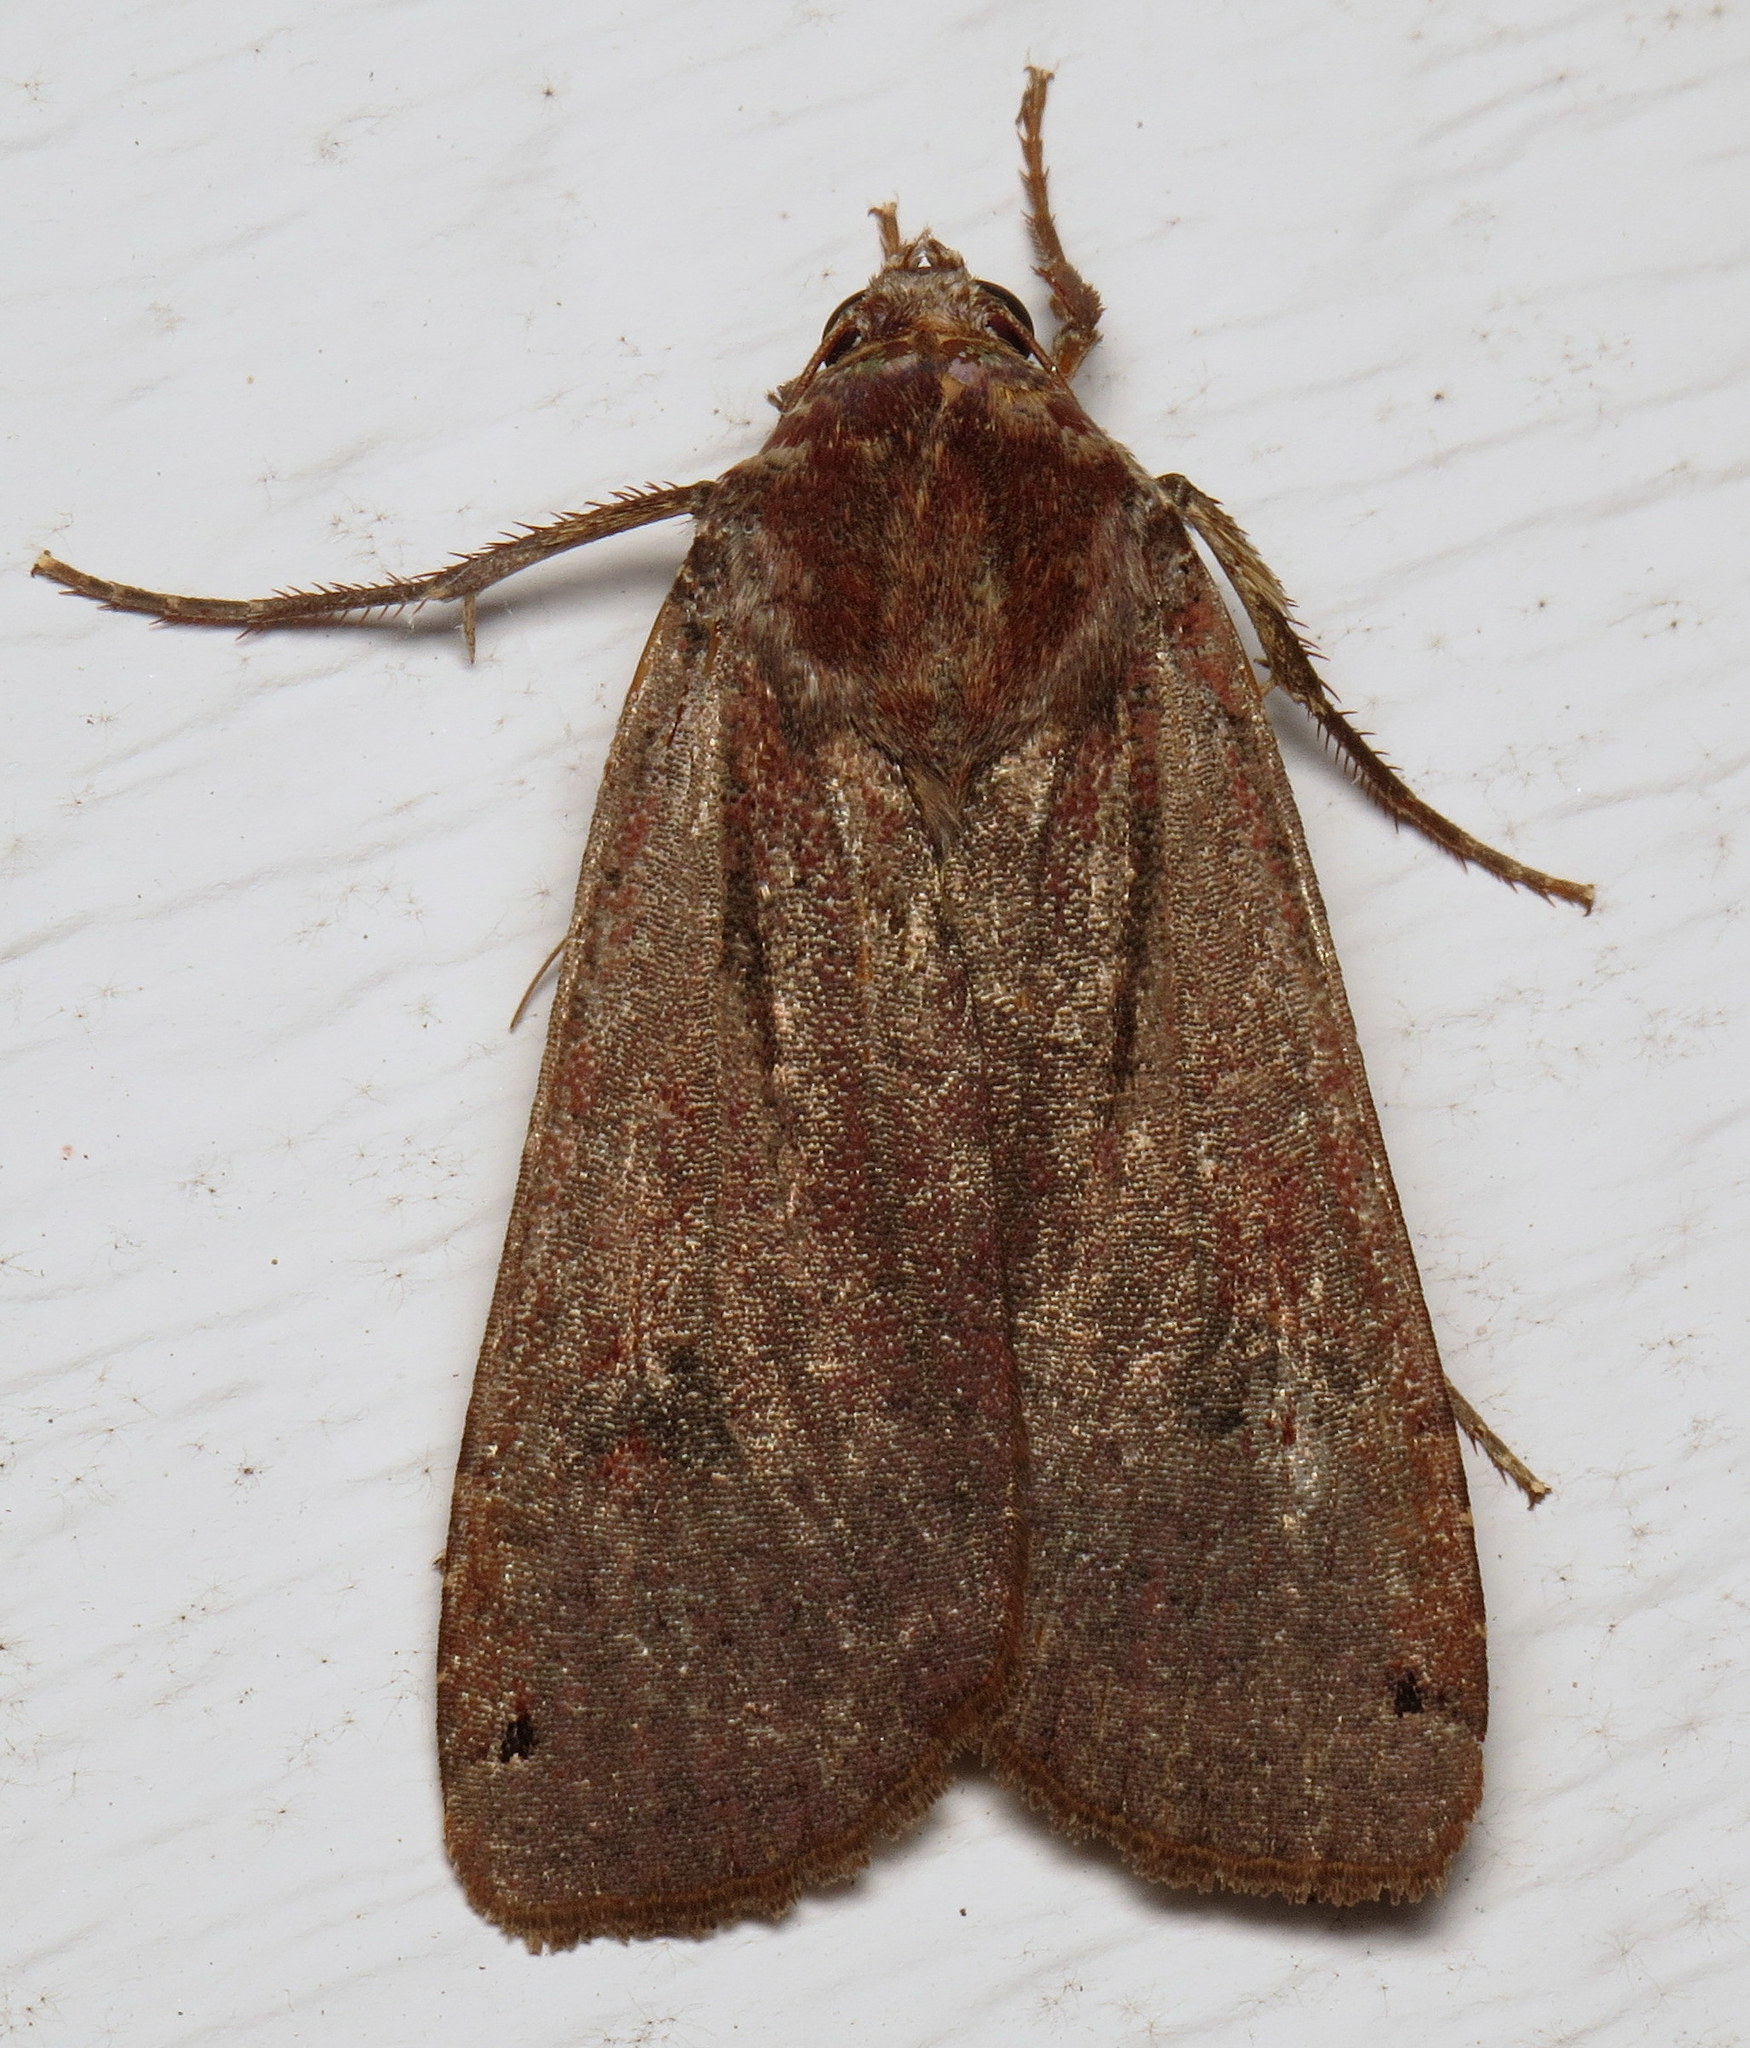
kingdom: Animalia
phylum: Arthropoda
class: Insecta
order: Lepidoptera
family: Noctuidae
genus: Noctua
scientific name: Noctua pronuba
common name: Large yellow underwing
